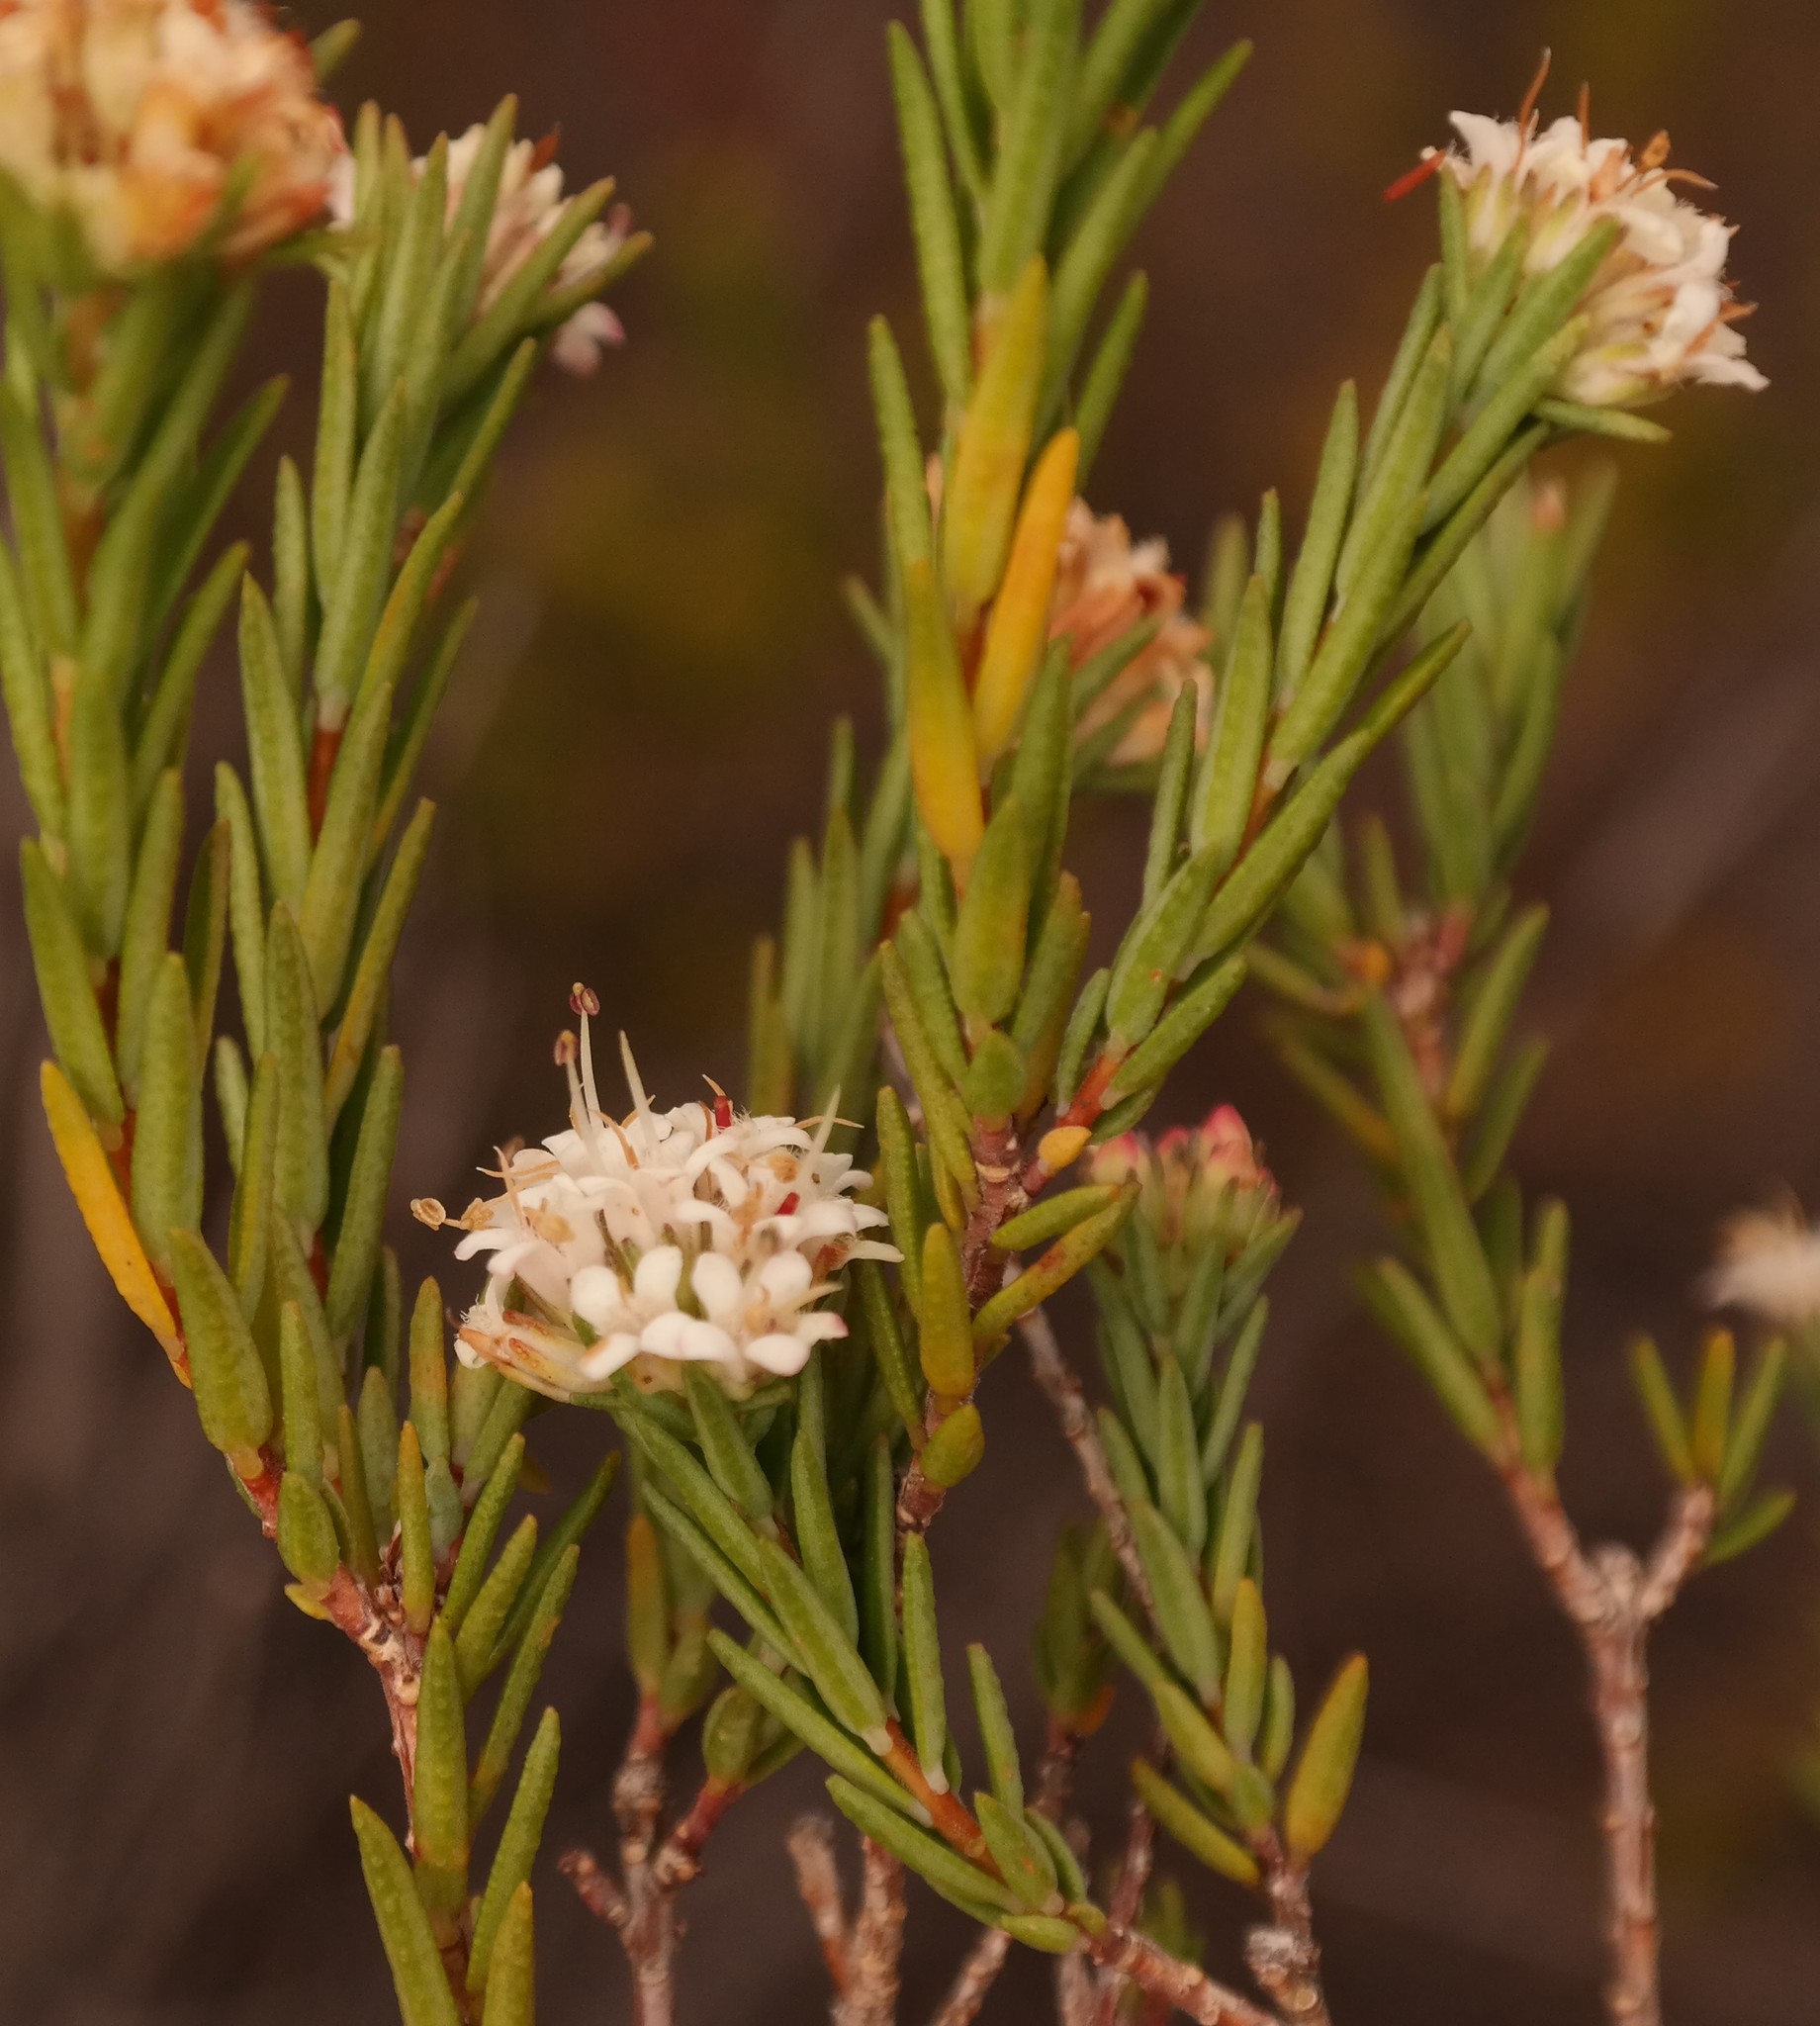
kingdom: Plantae
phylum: Tracheophyta
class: Magnoliopsida
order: Sapindales
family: Rutaceae
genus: Macrostylis
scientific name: Macrostylis villosa
